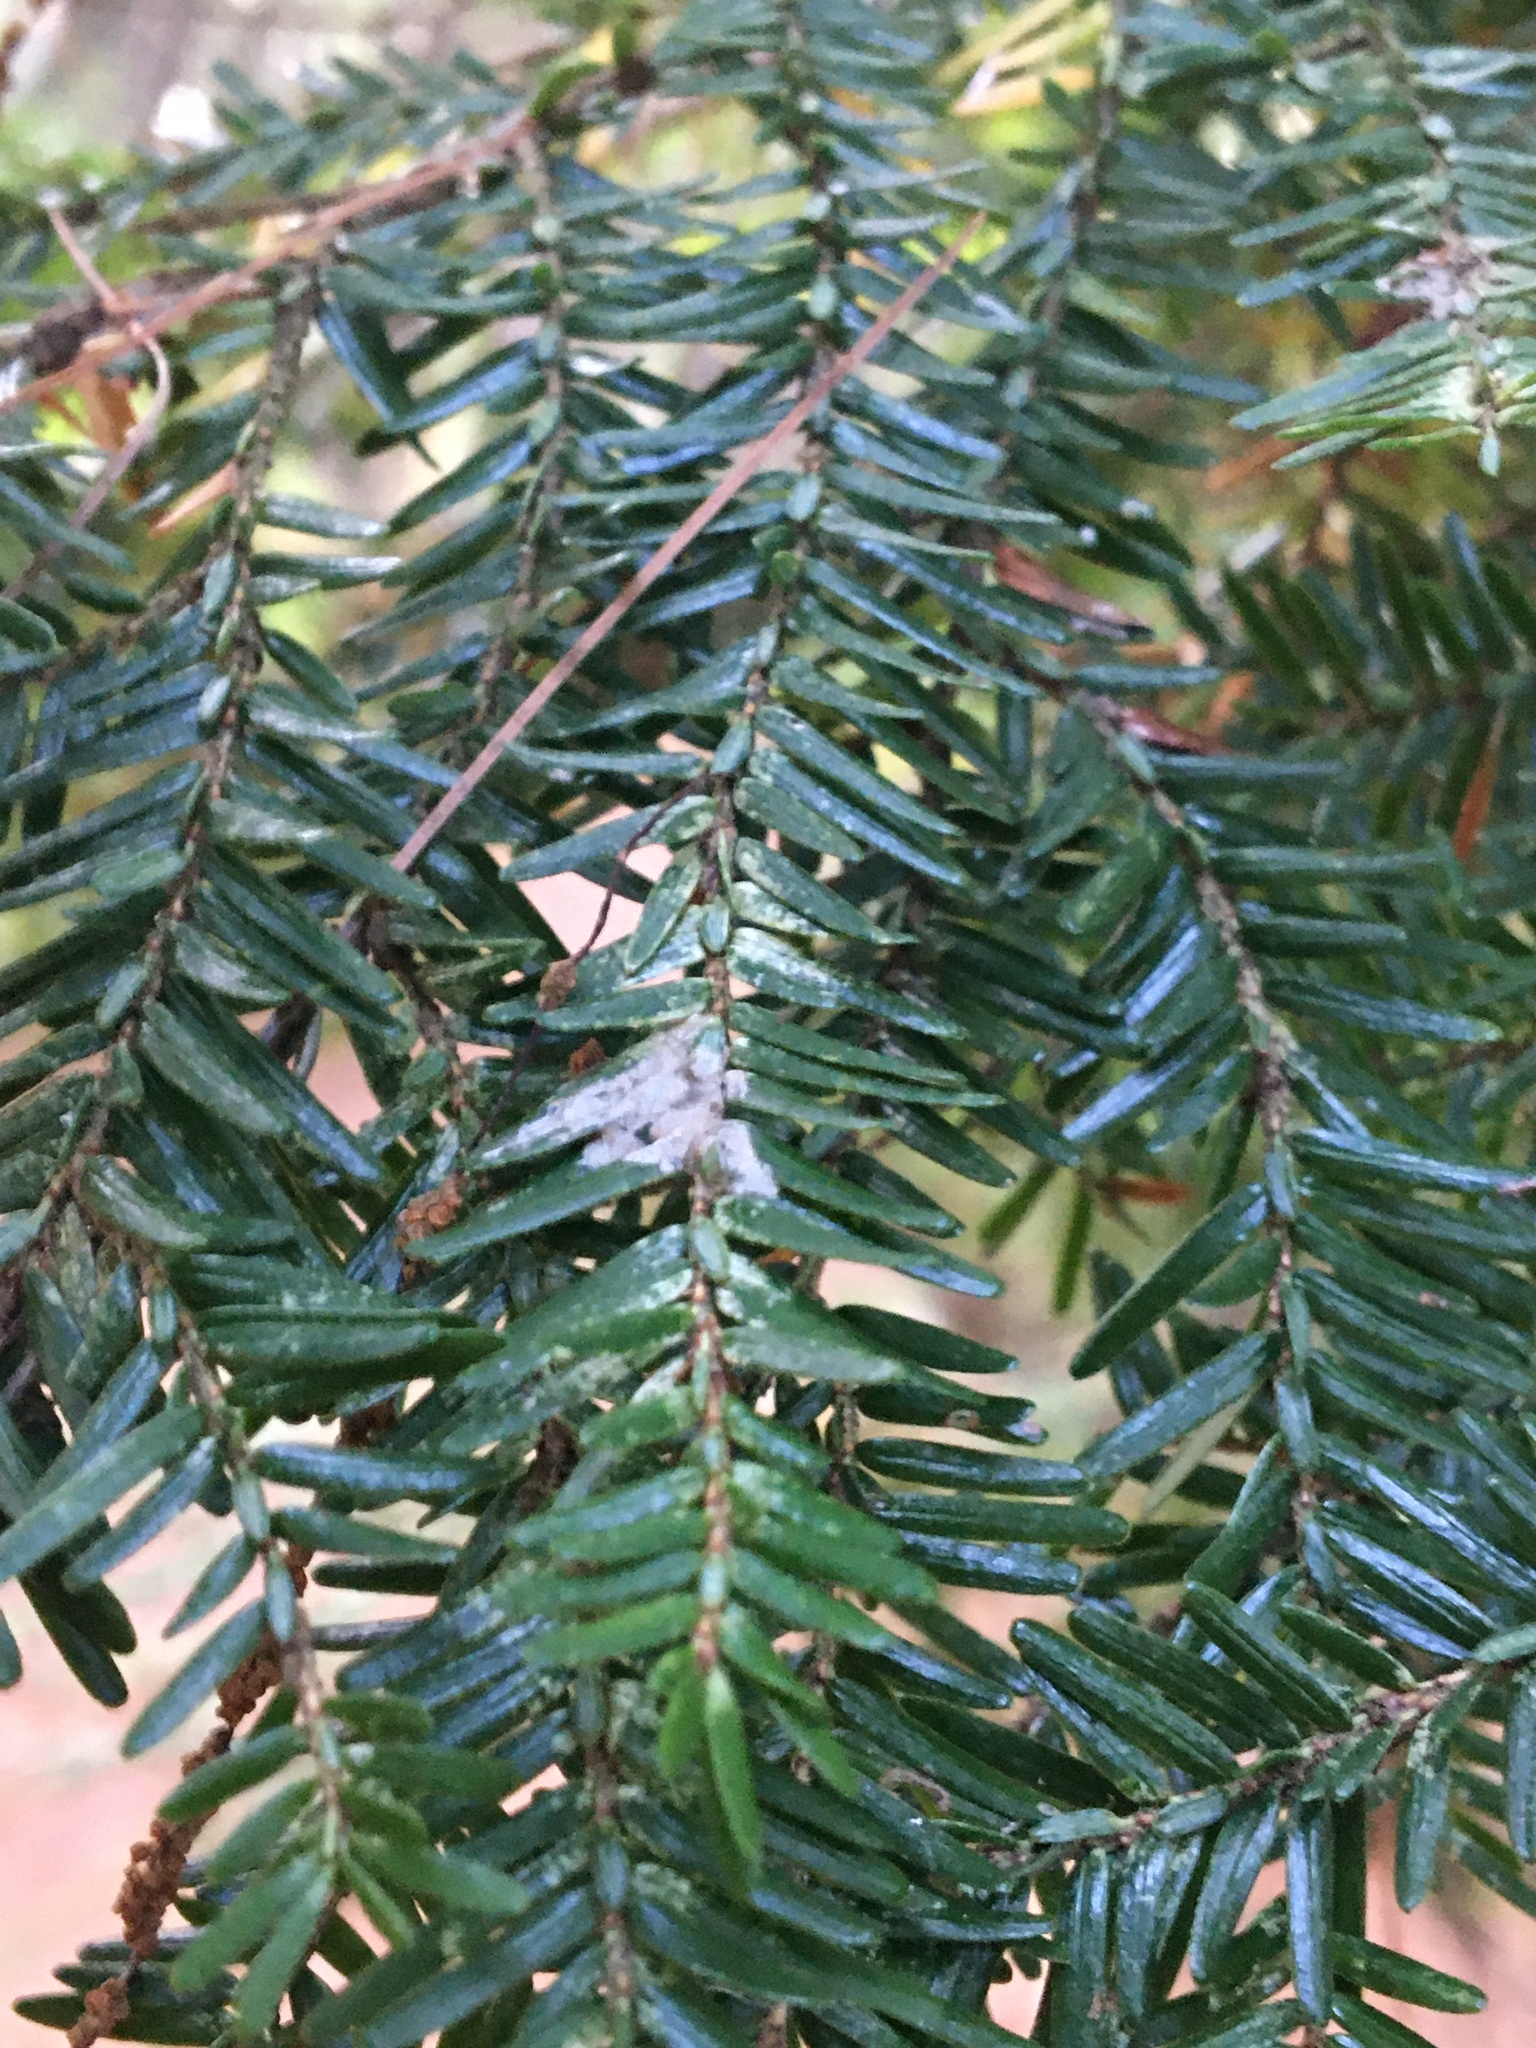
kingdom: Animalia
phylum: Arthropoda
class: Insecta
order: Hemiptera
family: Adelgidae
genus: Adelges
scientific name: Adelges tsugae
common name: Hemlock woolly adelgid
